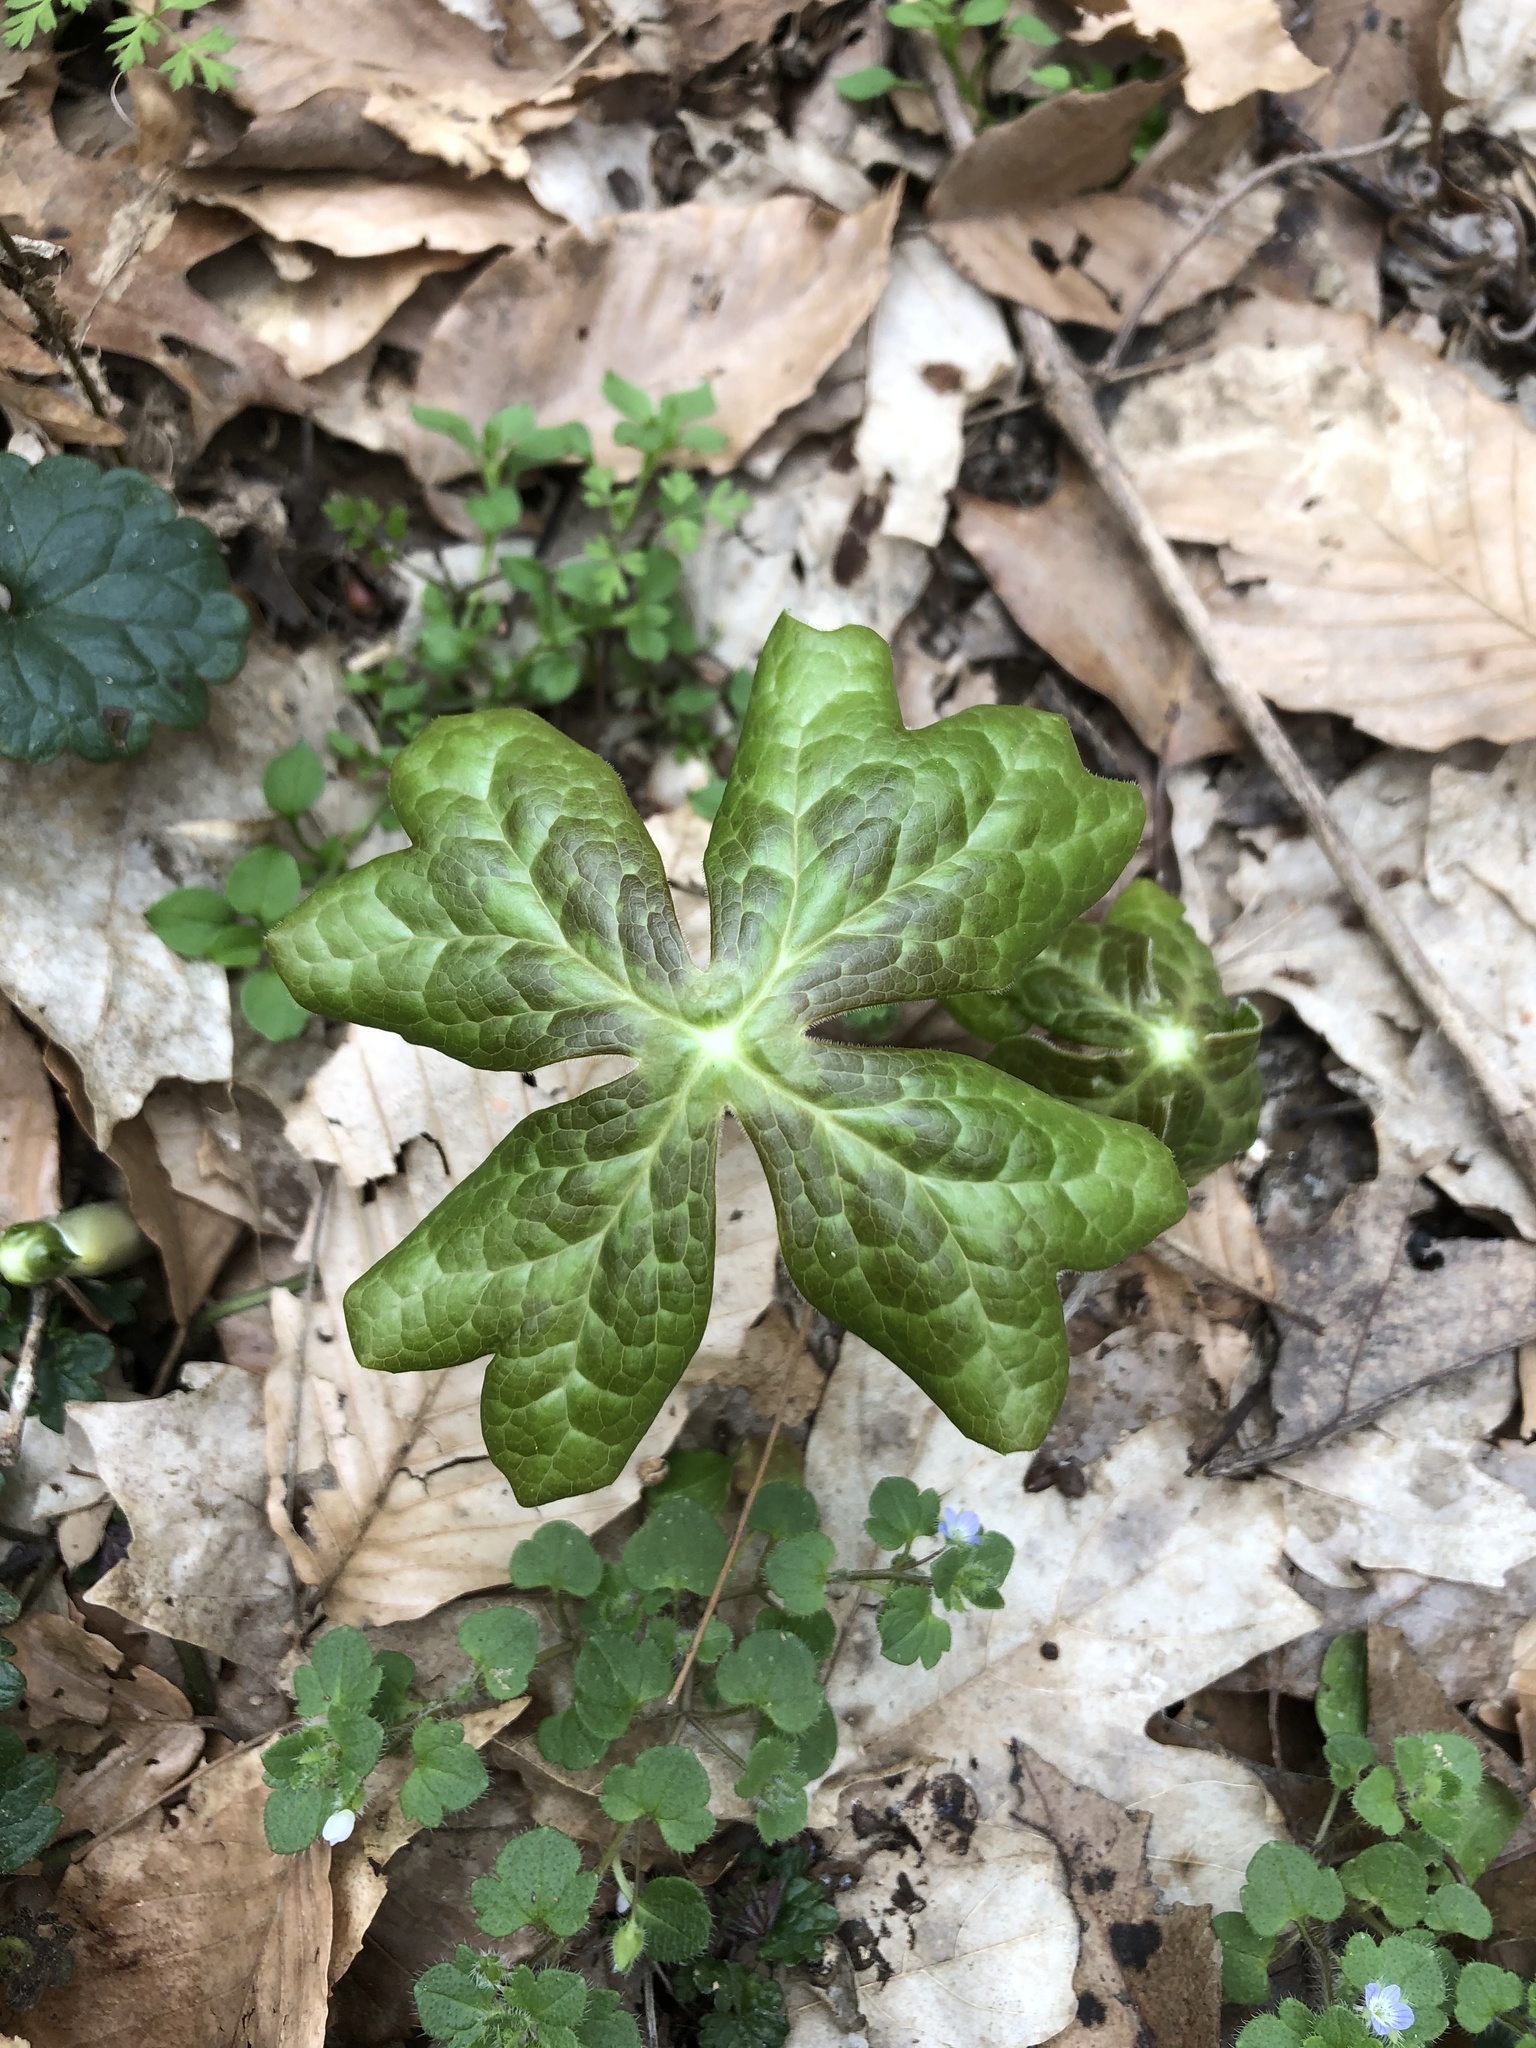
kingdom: Plantae
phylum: Tracheophyta
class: Magnoliopsida
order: Ranunculales
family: Berberidaceae
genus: Podophyllum
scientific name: Podophyllum peltatum
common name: Wild mandrake
